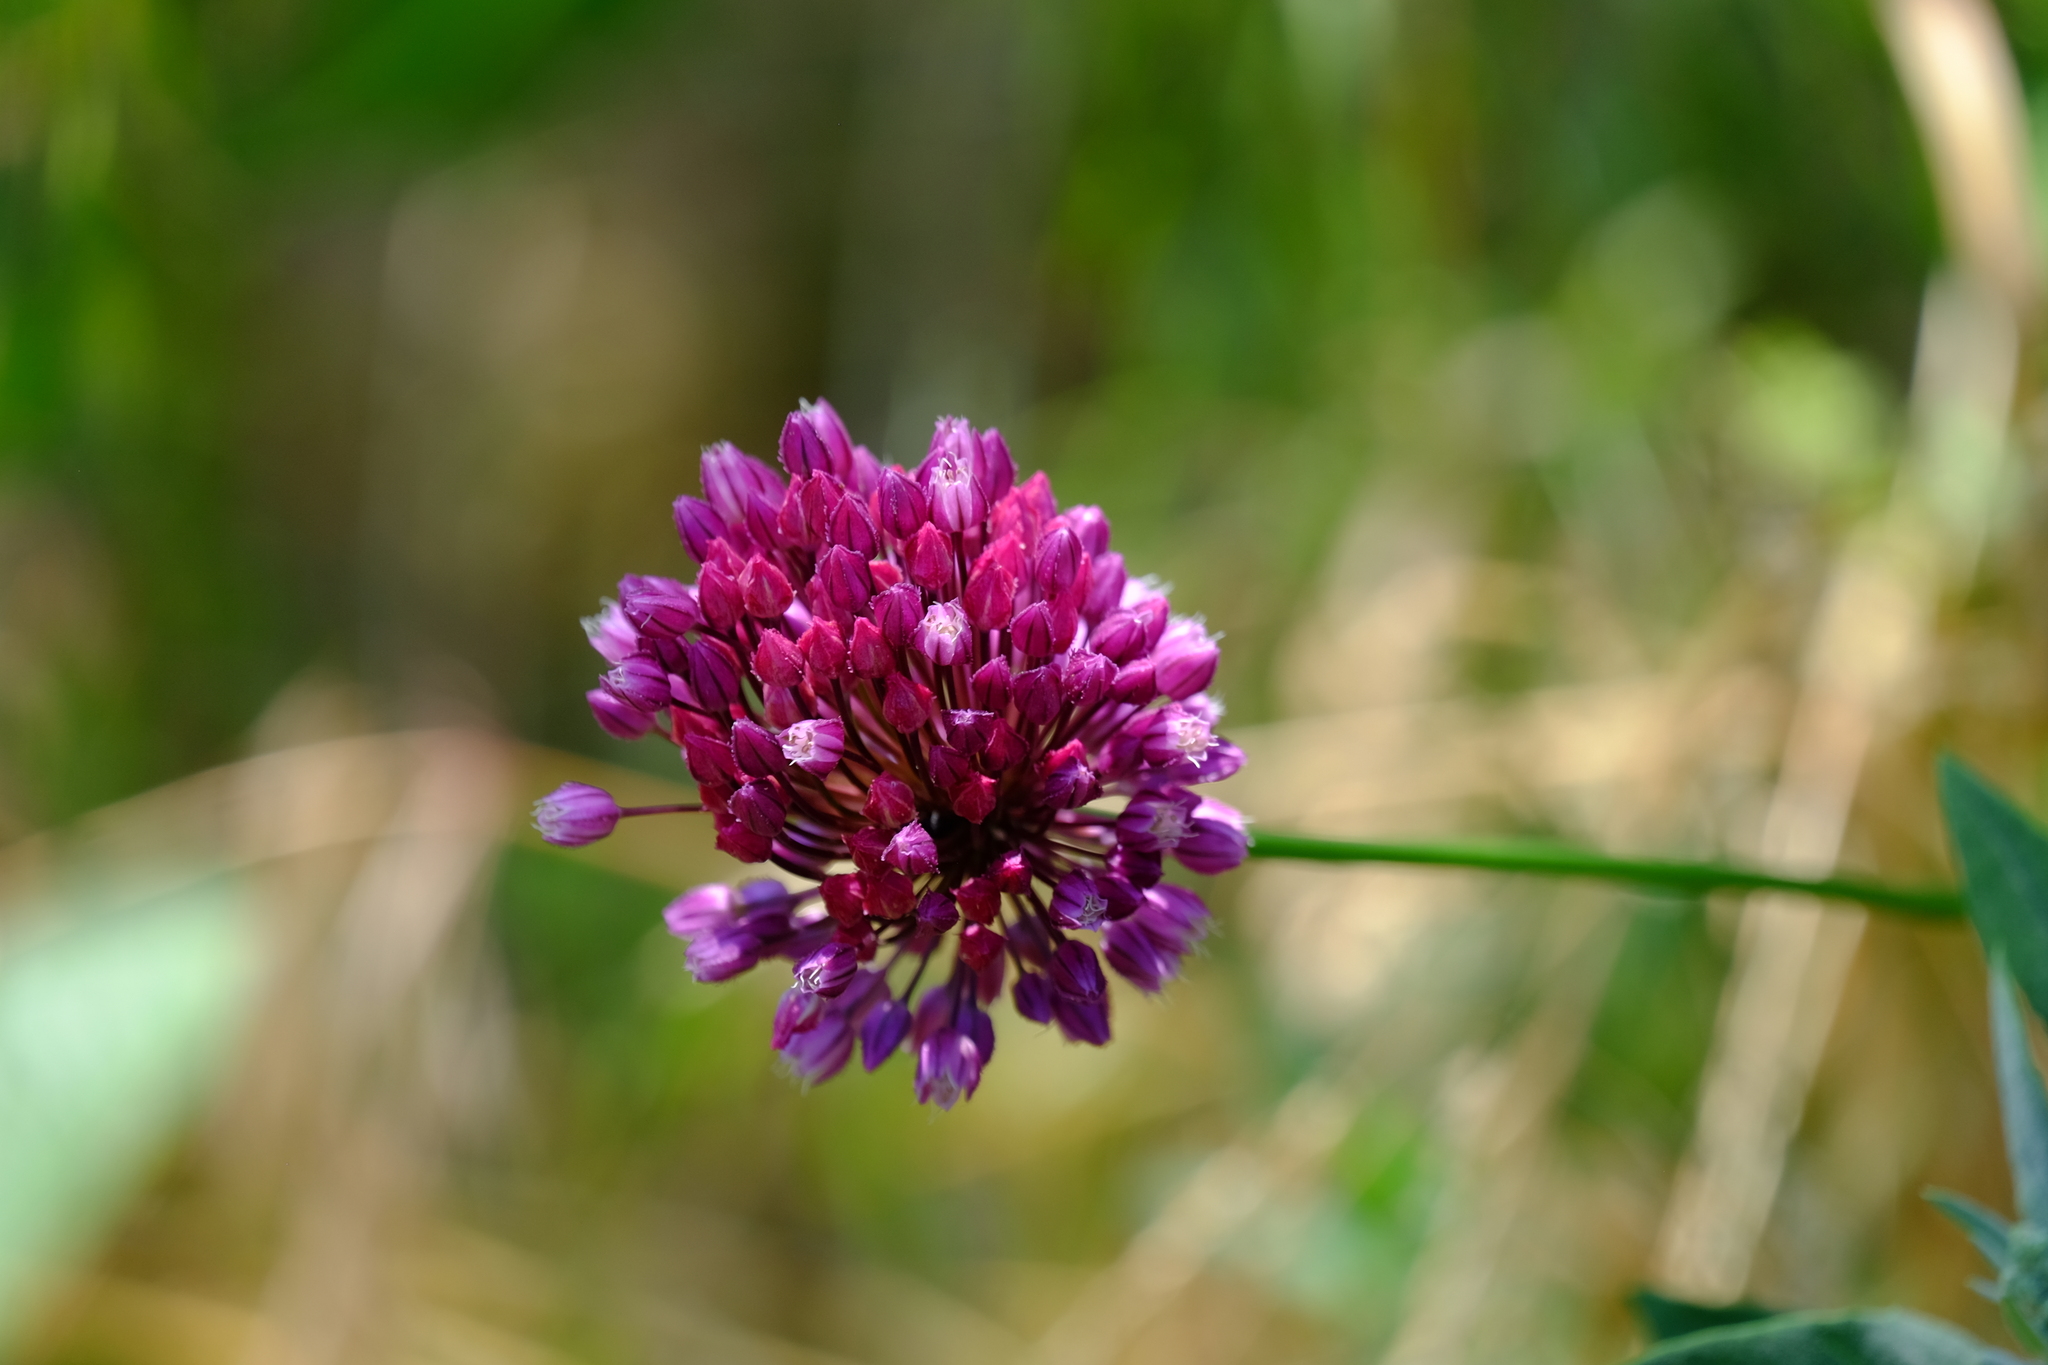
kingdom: Plantae
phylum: Tracheophyta
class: Liliopsida
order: Asparagales
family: Amaryllidaceae
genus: Allium
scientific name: Allium rotundum
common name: Sand leek
